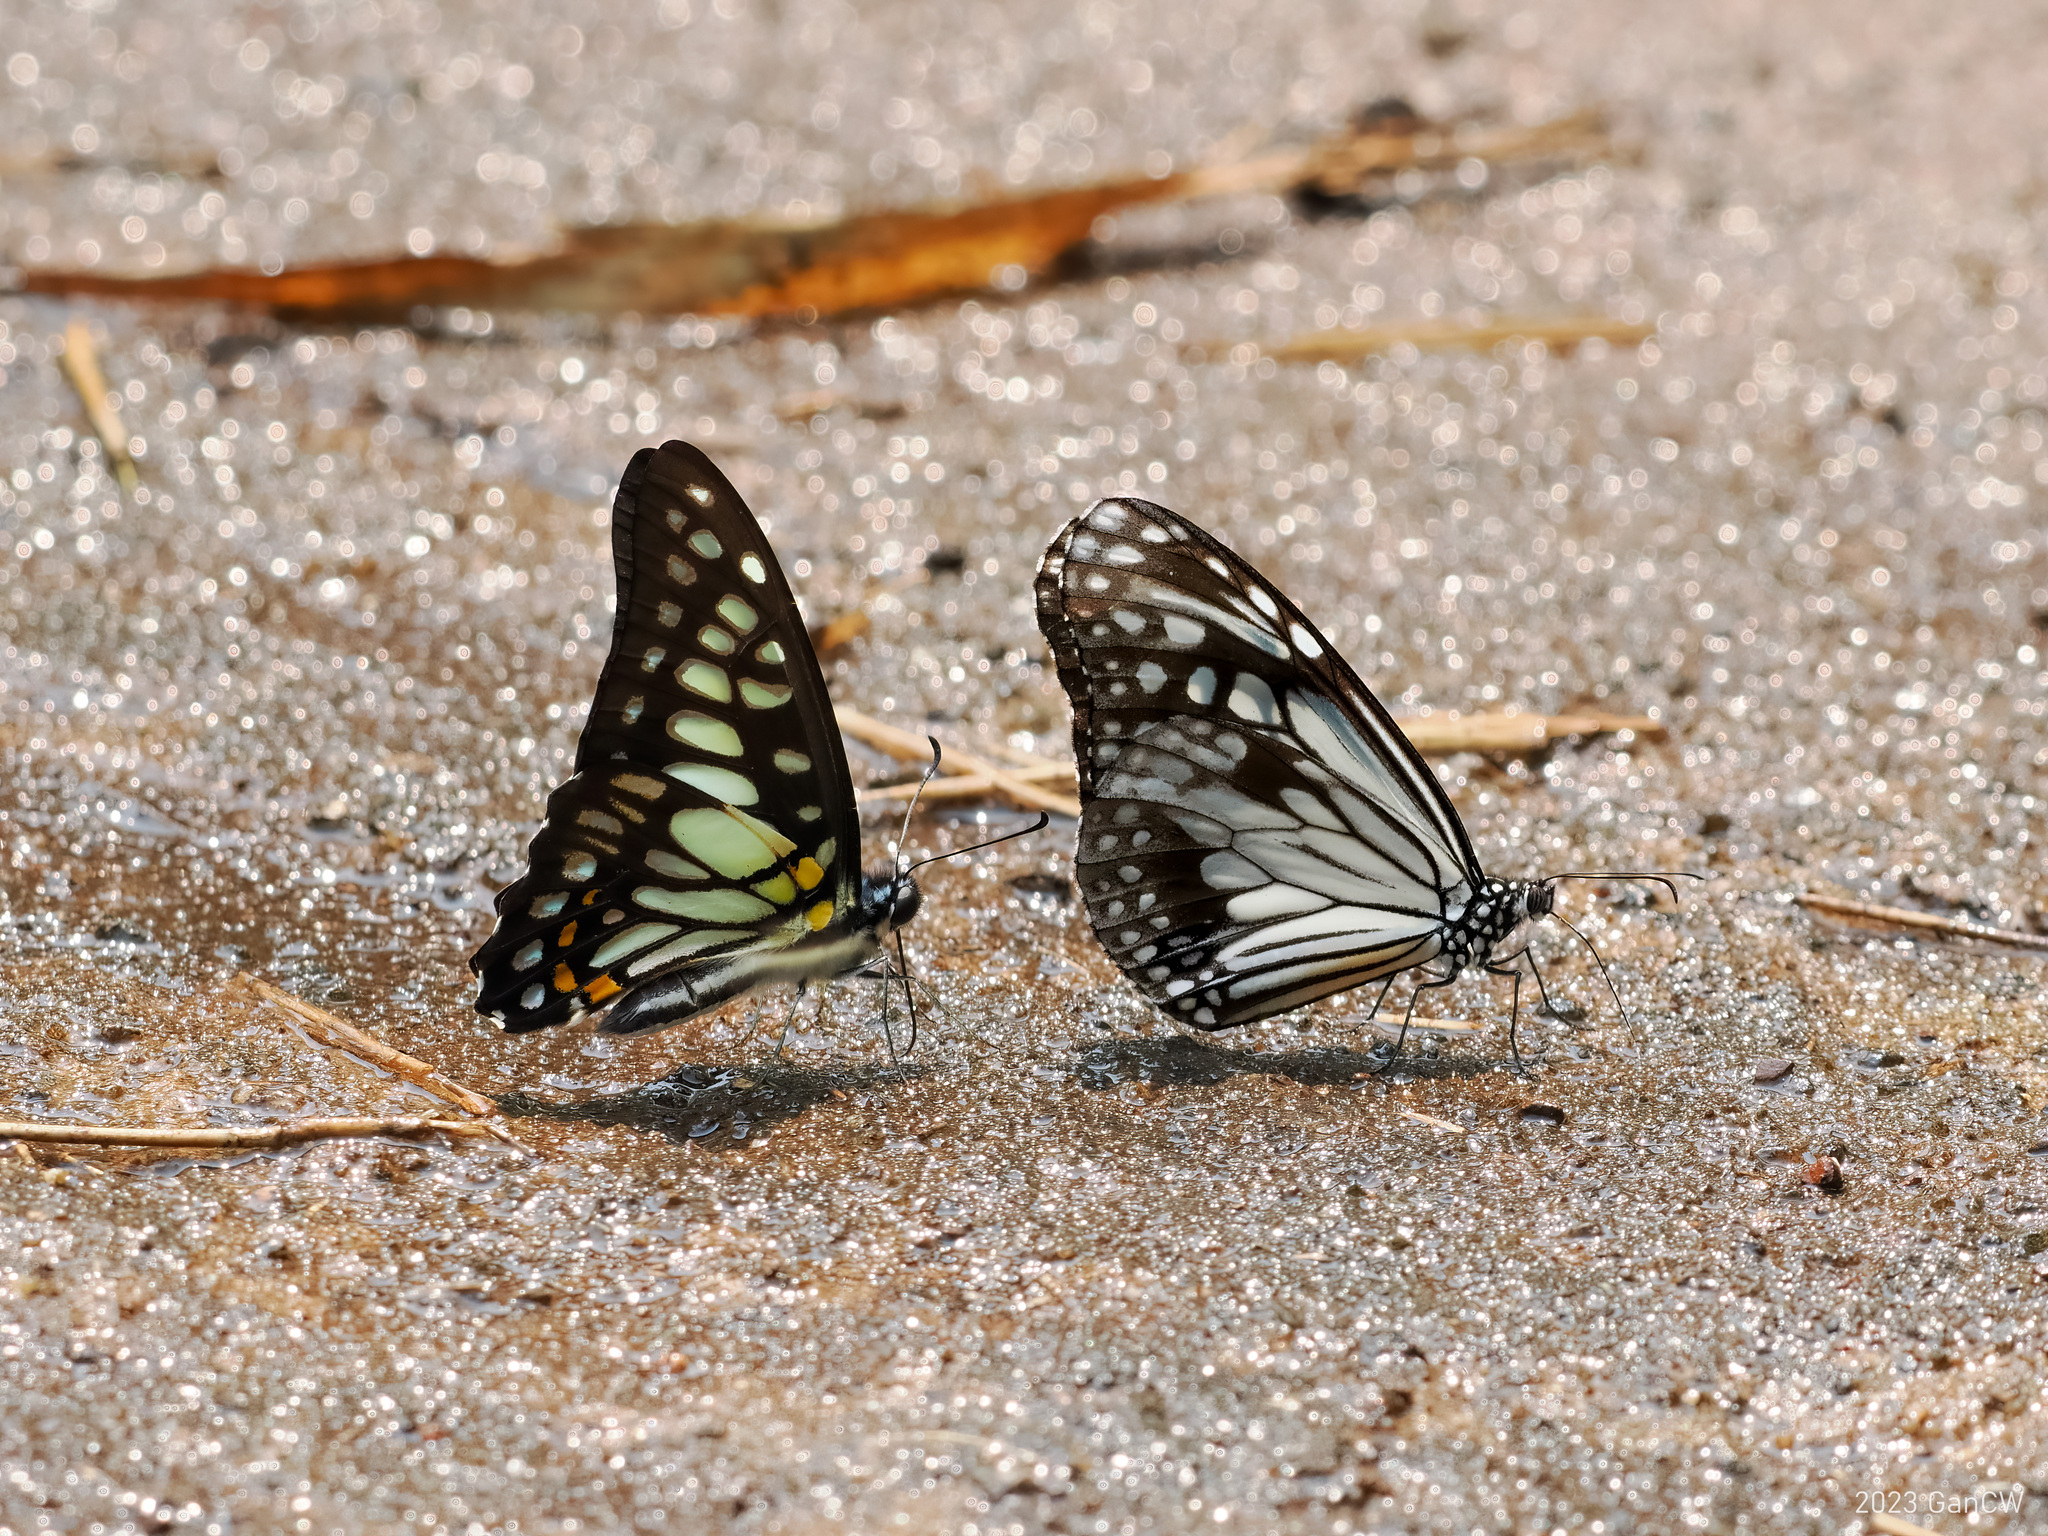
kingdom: Animalia
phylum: Arthropoda
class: Insecta
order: Lepidoptera
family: Papilionidae
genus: Graphium
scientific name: Graphium chironides
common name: Veined jay
